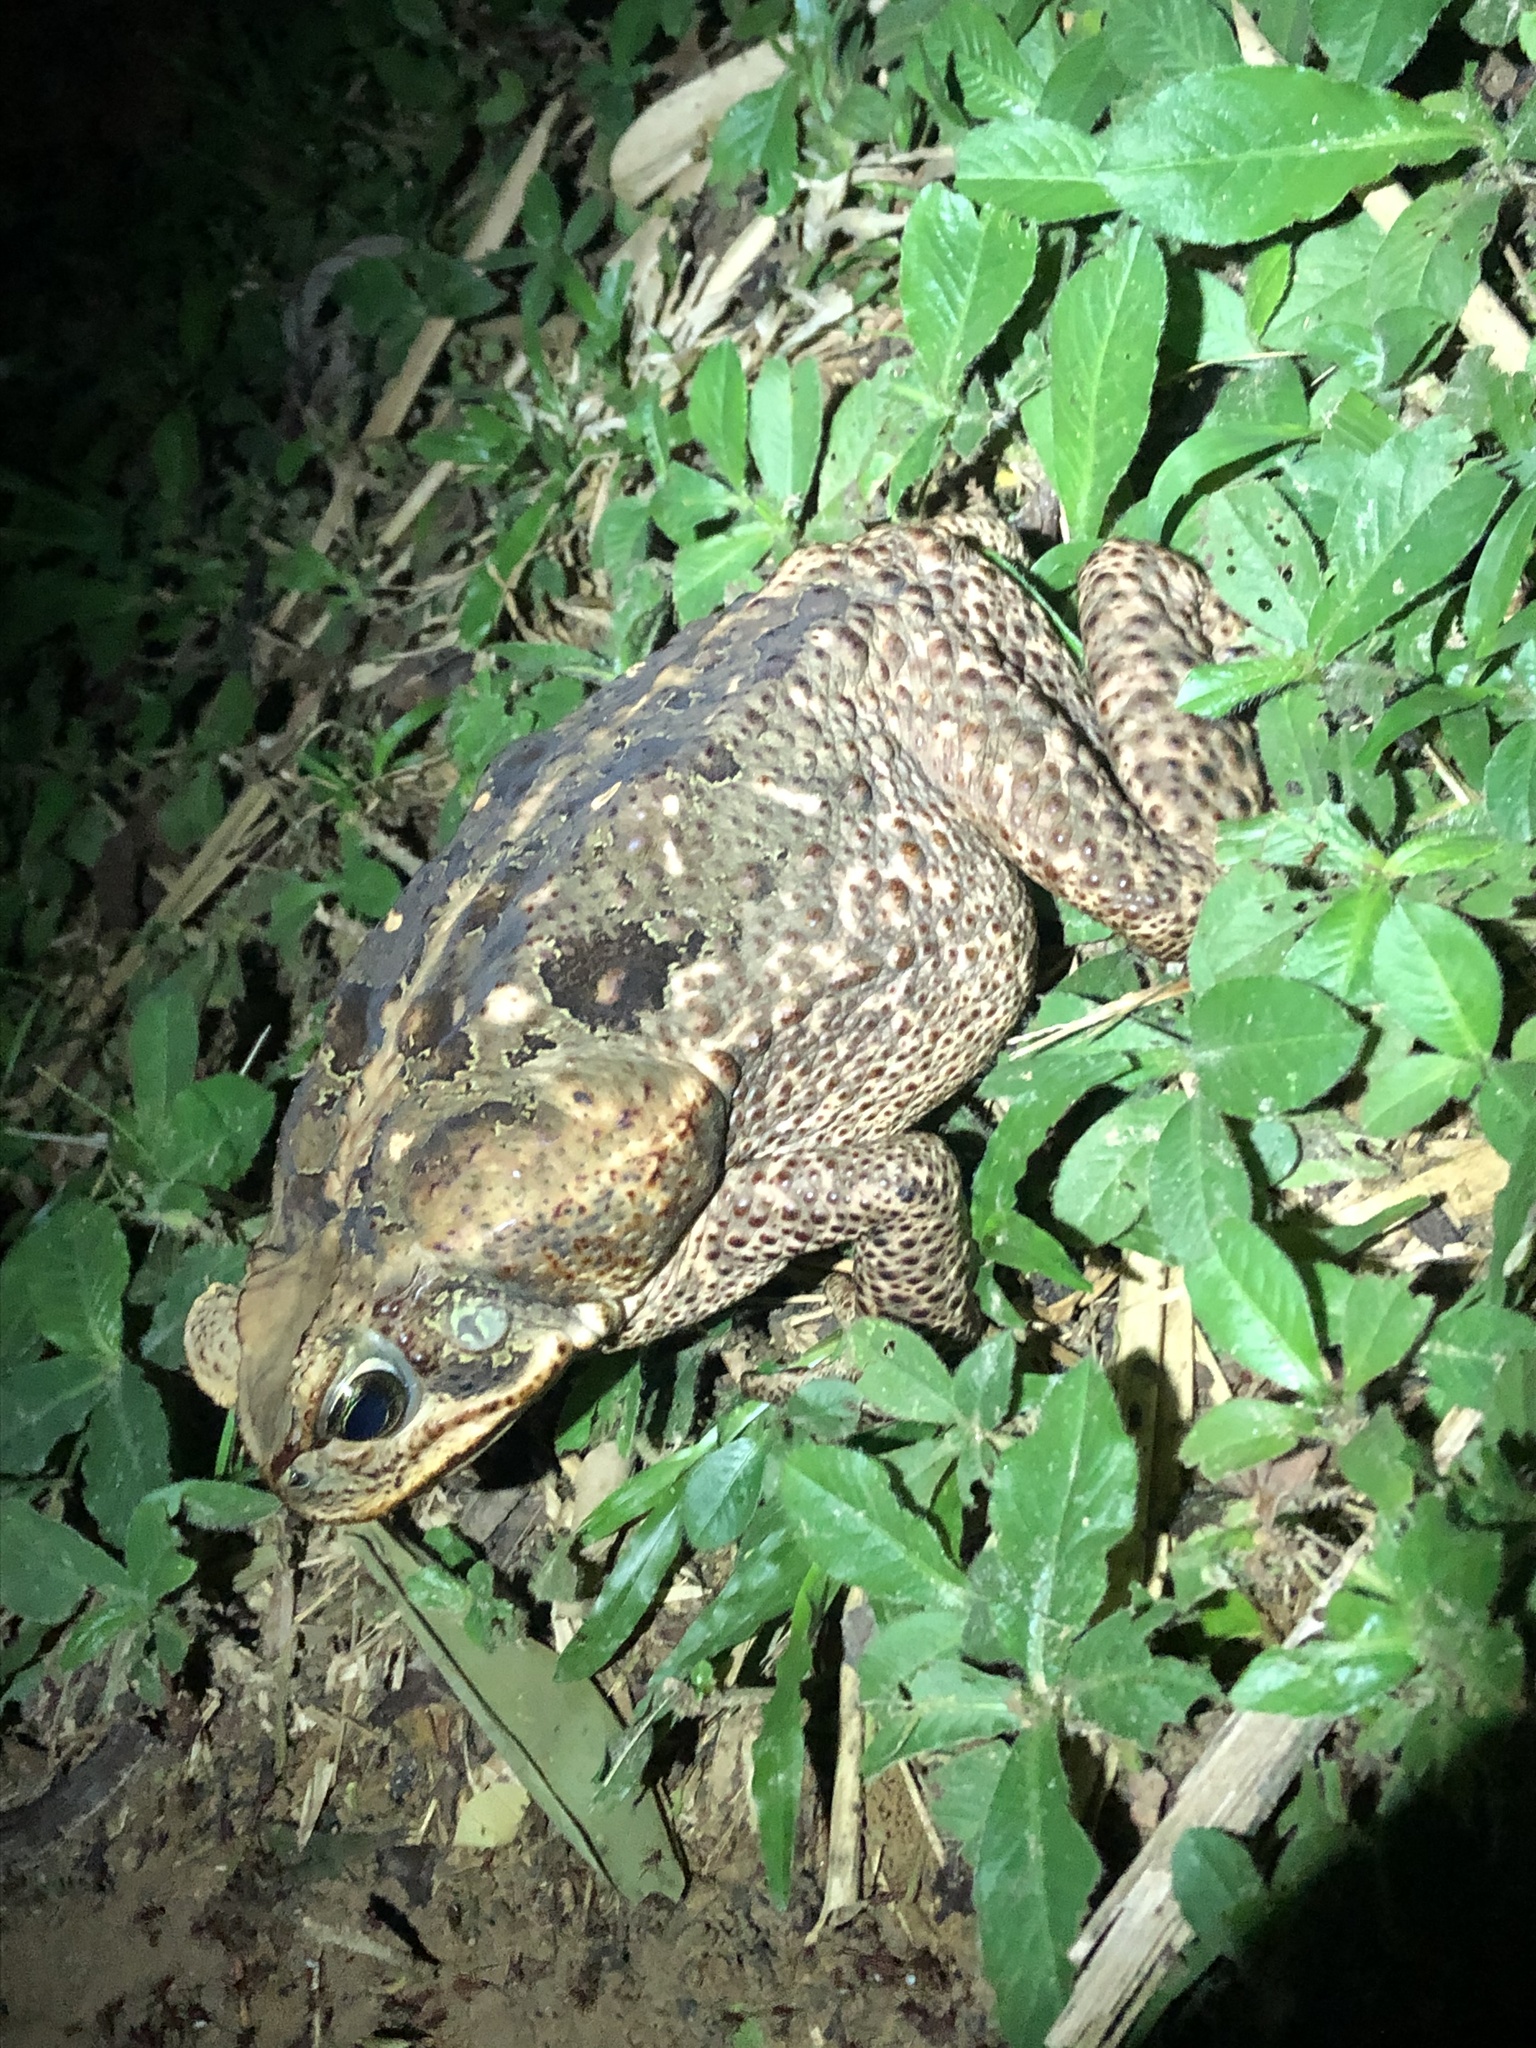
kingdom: Animalia
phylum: Chordata
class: Amphibia
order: Anura
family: Bufonidae
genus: Rhinella
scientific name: Rhinella marina
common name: Cane toad
